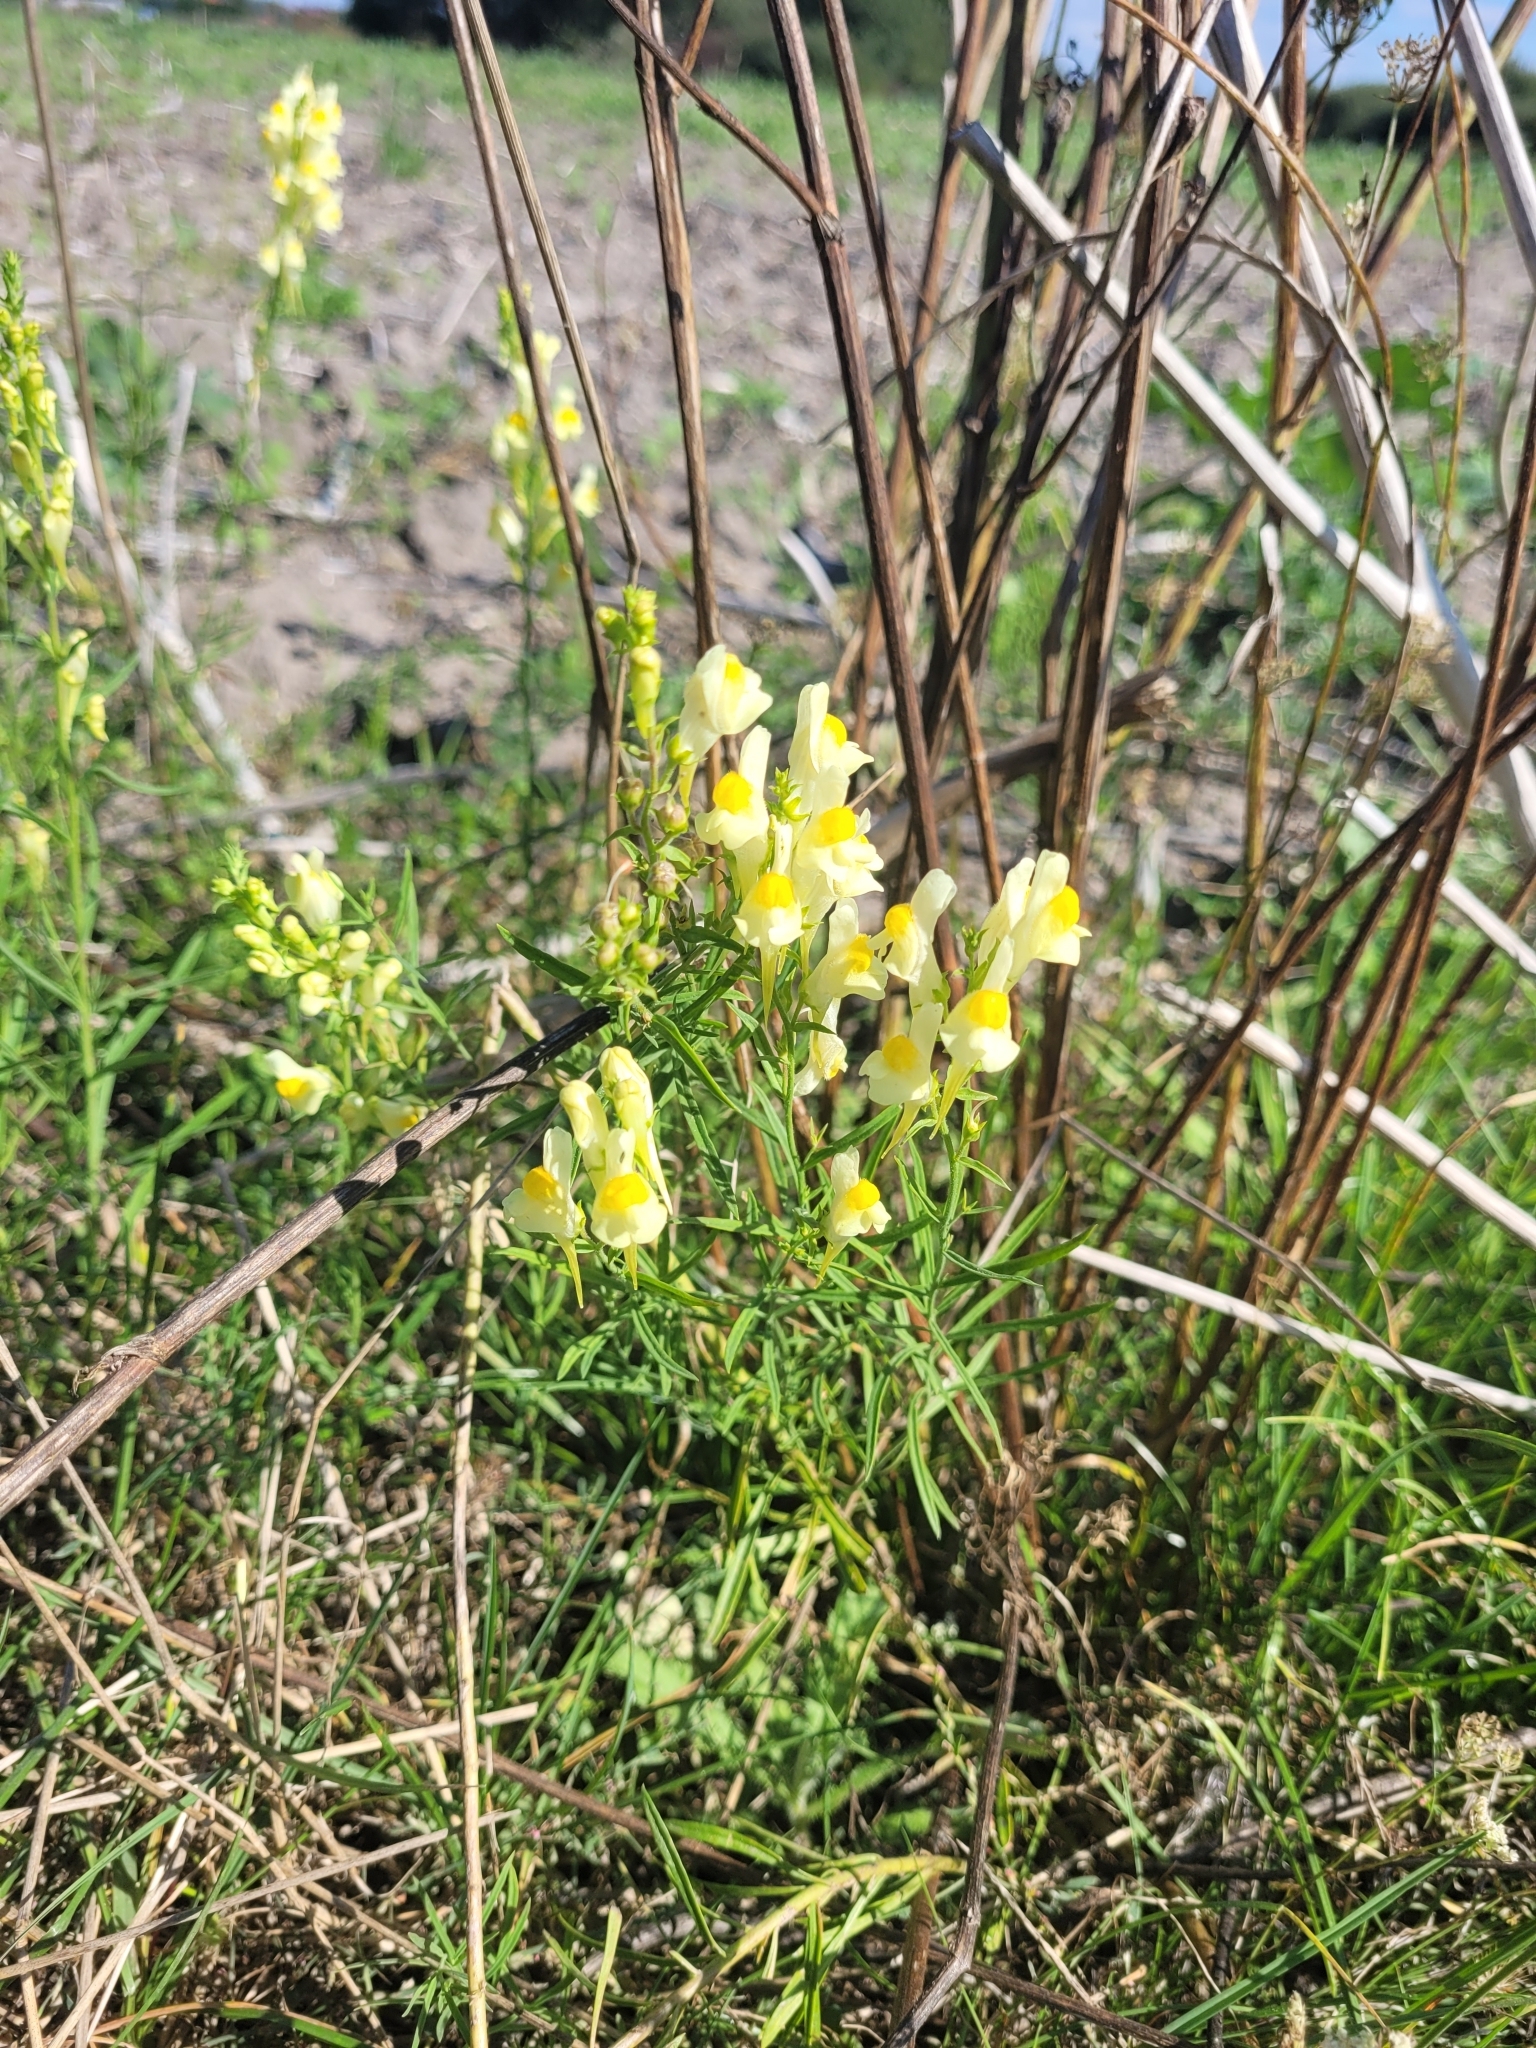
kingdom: Plantae
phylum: Tracheophyta
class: Magnoliopsida
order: Lamiales
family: Plantaginaceae
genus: Linaria
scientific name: Linaria vulgaris
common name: Butter and eggs
